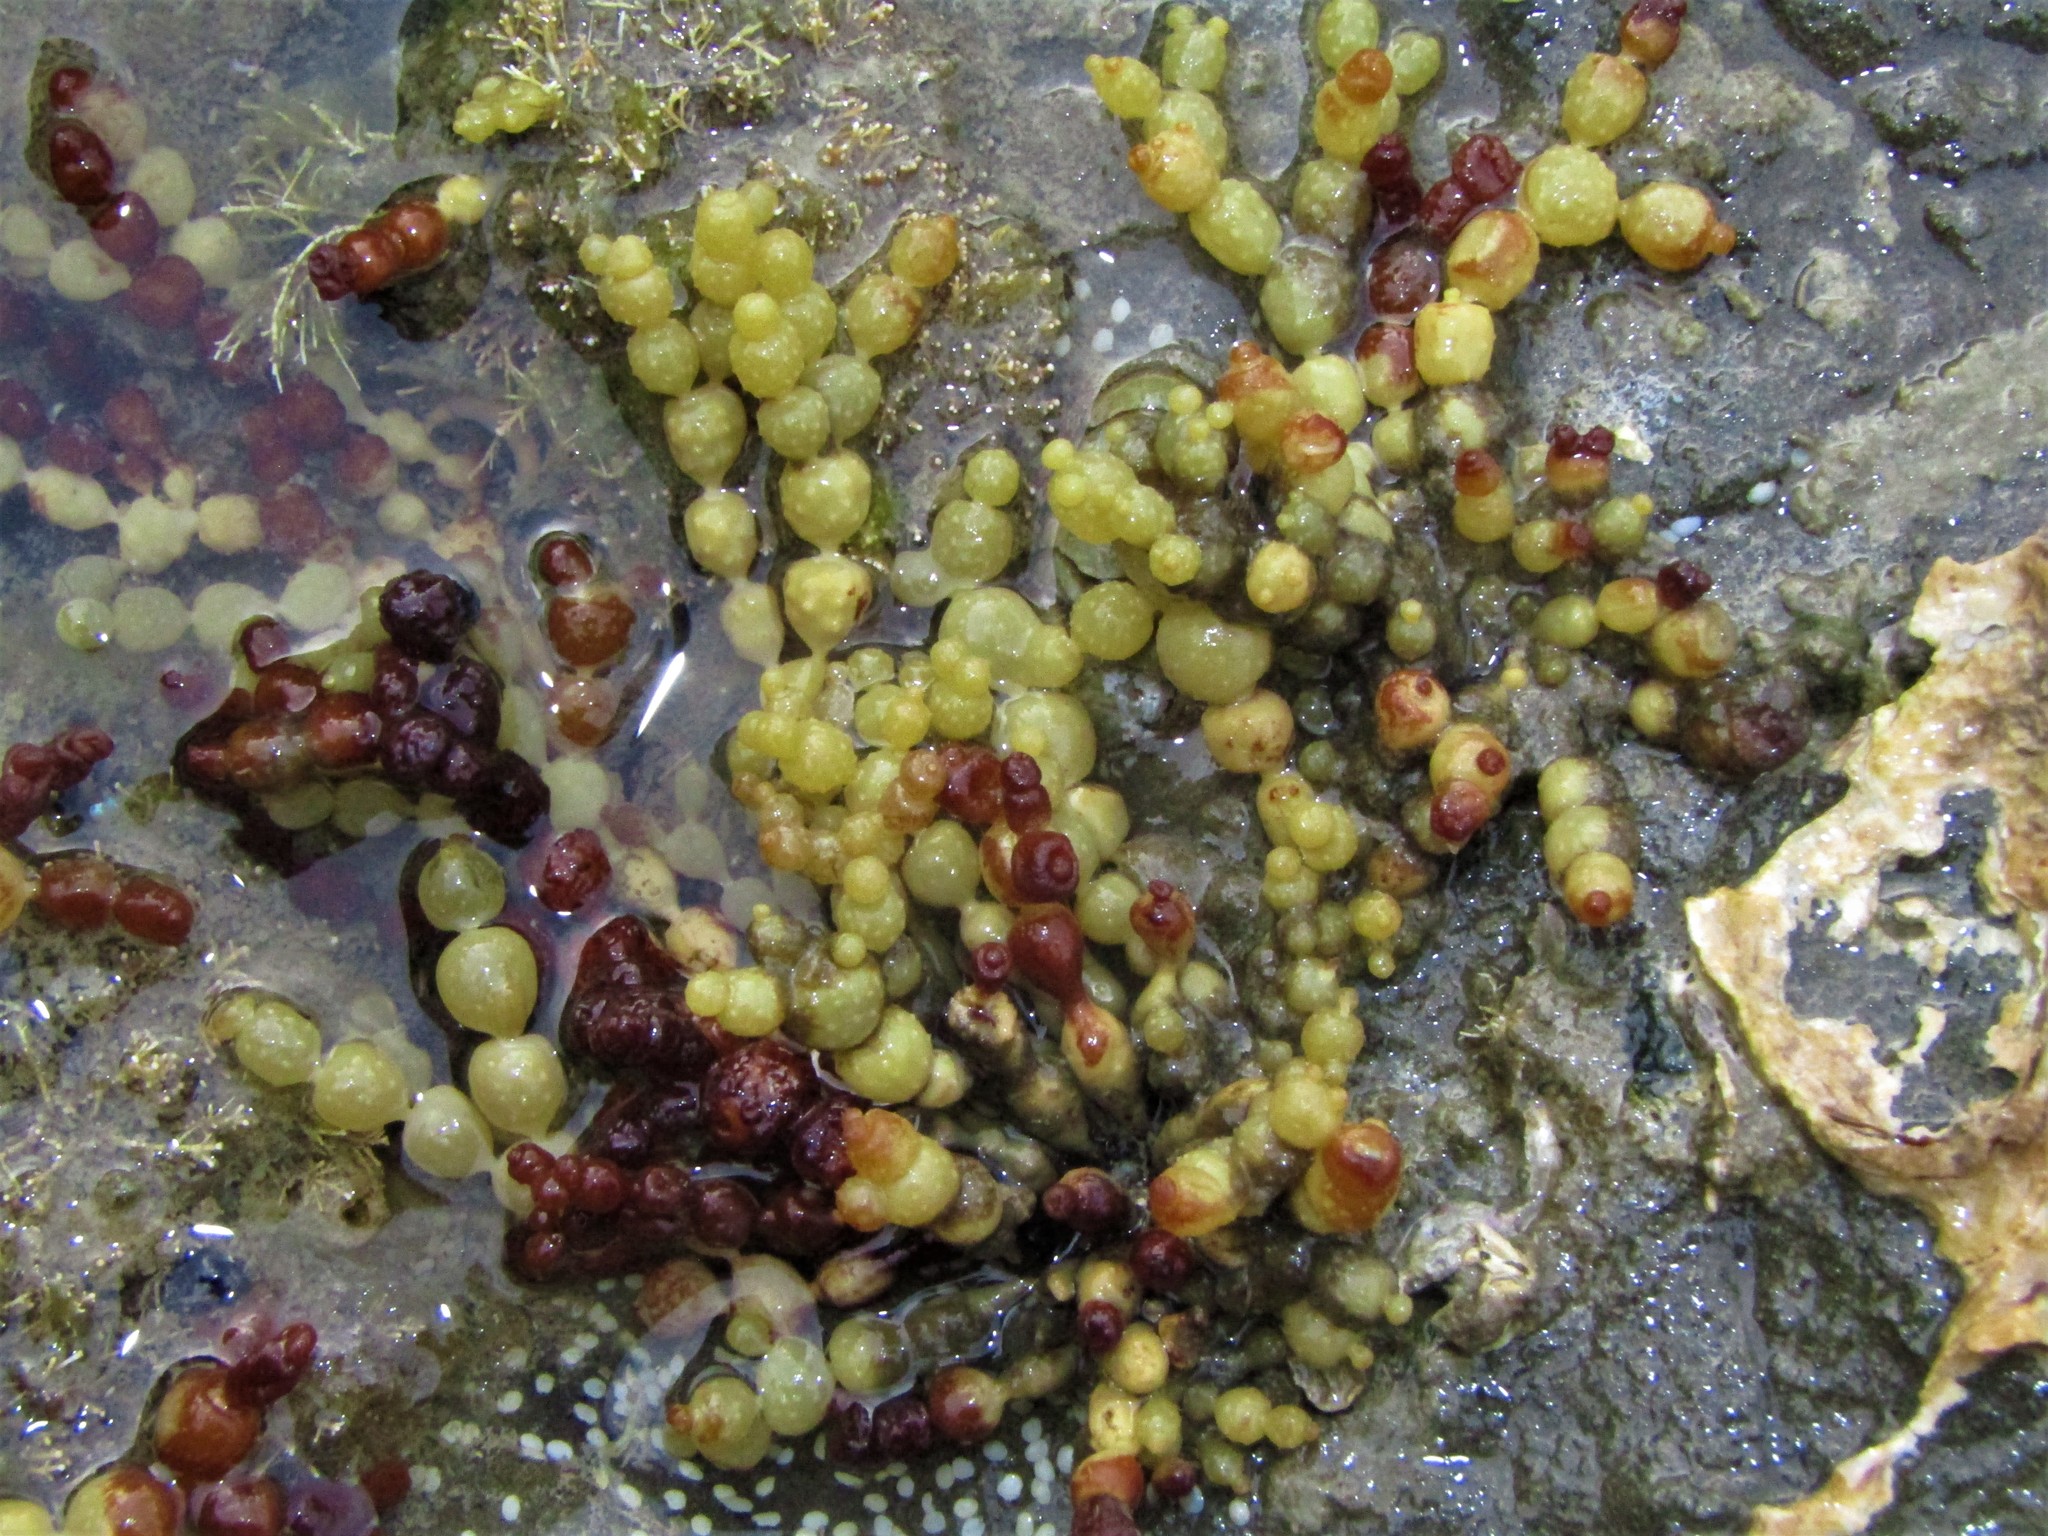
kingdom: Chromista
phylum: Ochrophyta
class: Phaeophyceae
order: Fucales
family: Hormosiraceae
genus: Hormosira
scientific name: Hormosira banksii
